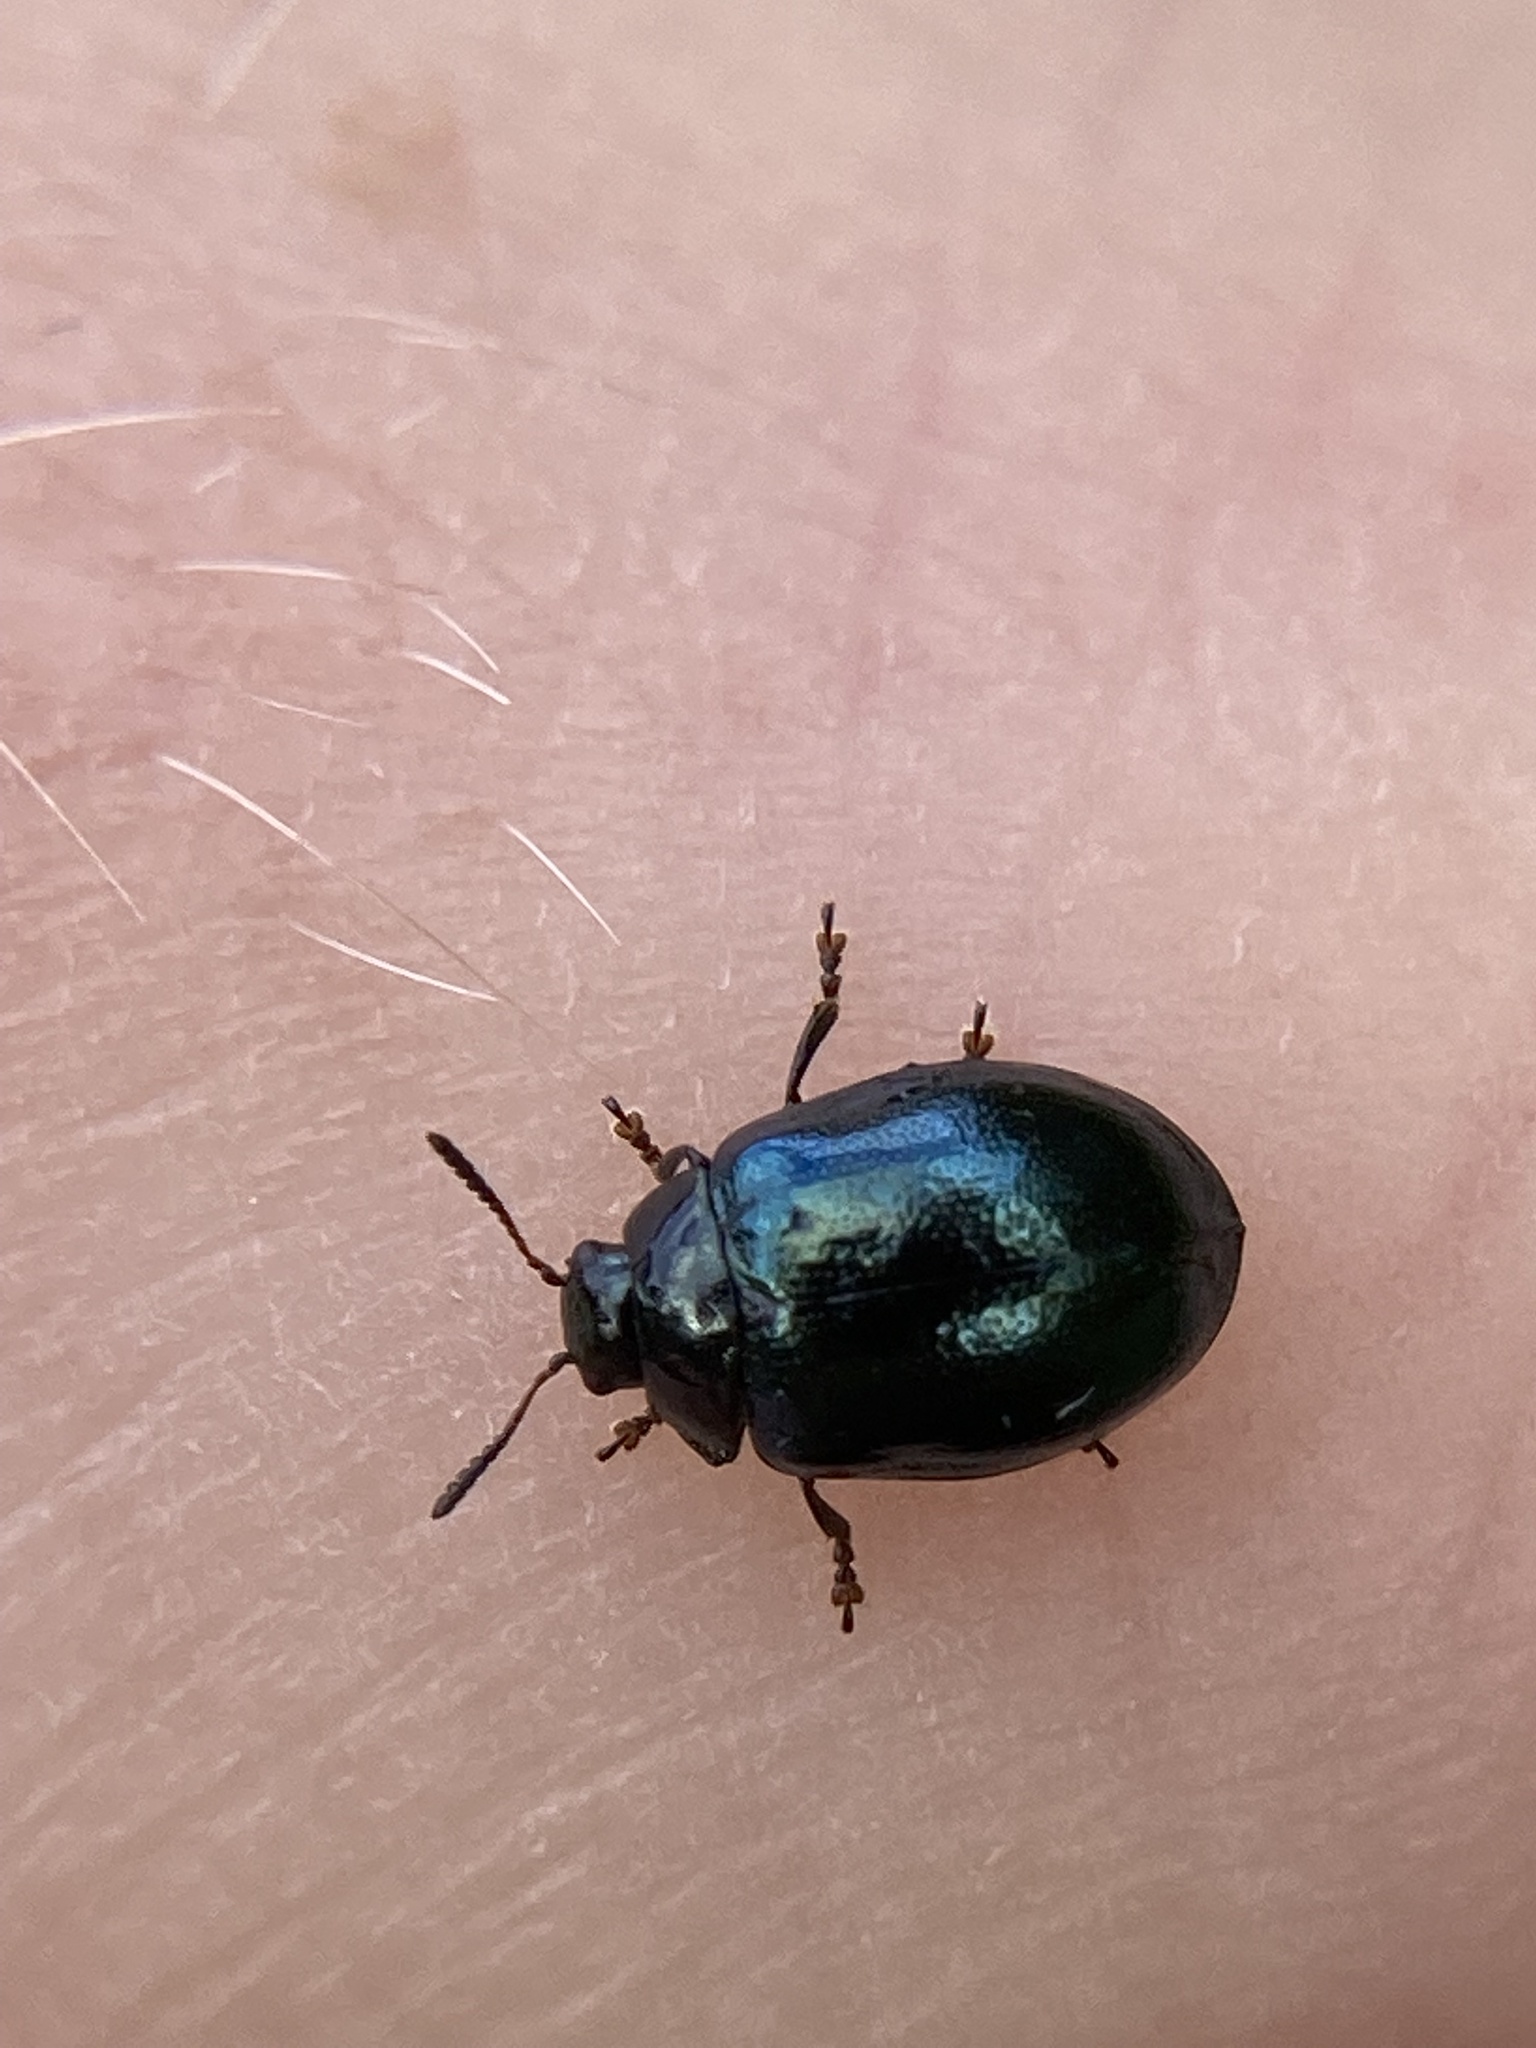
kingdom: Animalia
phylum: Arthropoda
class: Insecta
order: Coleoptera
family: Chrysomelidae
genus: Plagiodera
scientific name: Plagiodera versicolora
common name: Imported willow leaf beetle
